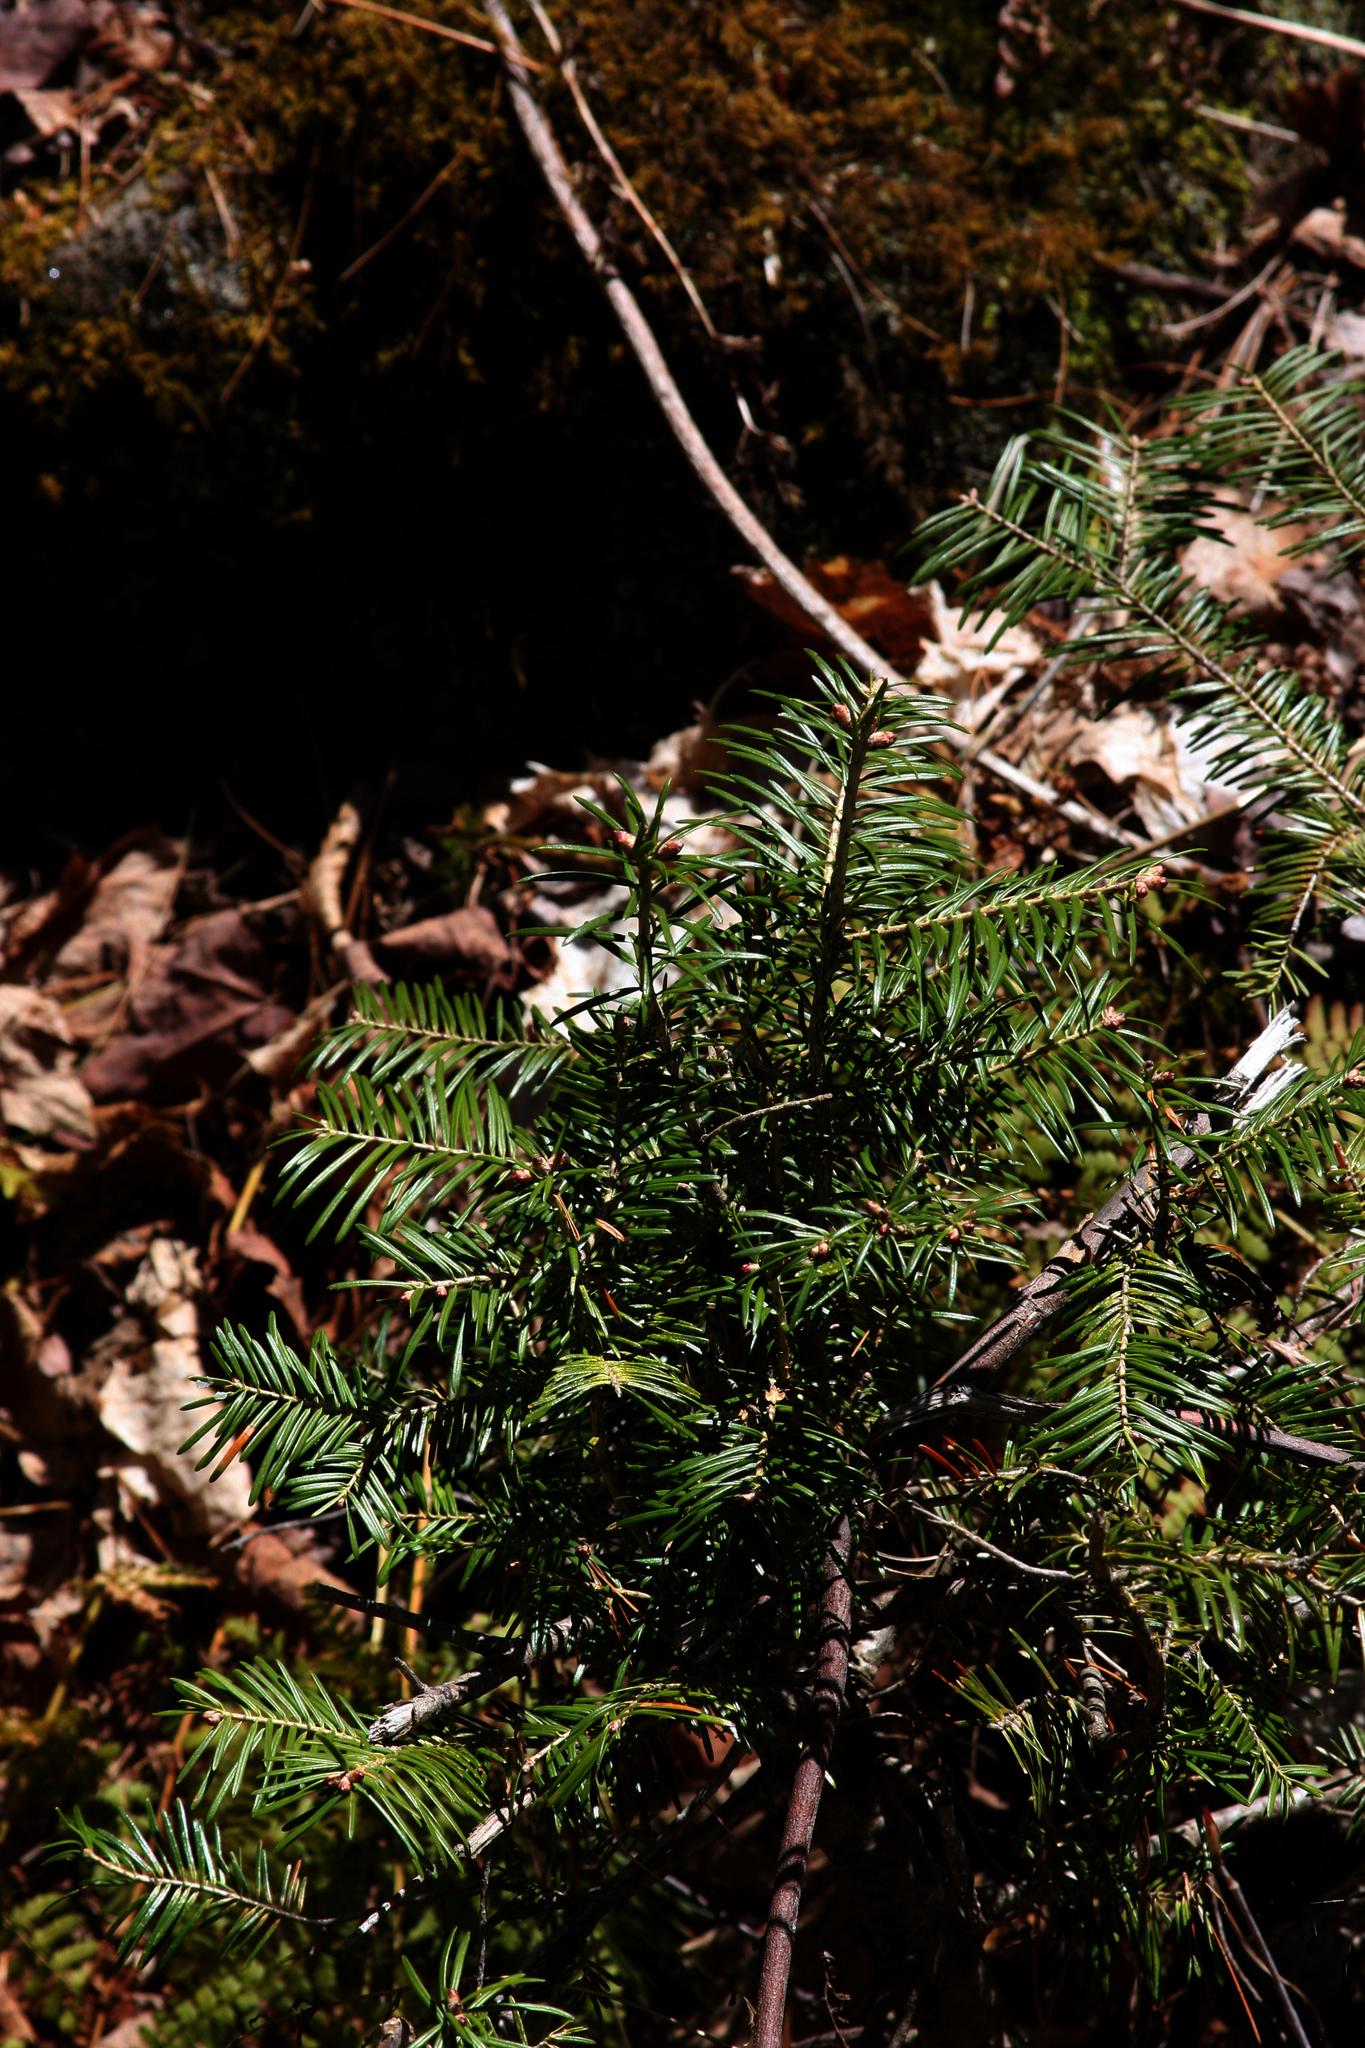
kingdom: Plantae
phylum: Tracheophyta
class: Pinopsida
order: Pinales
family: Pinaceae
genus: Abies
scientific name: Abies balsamea
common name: Balsam fir
